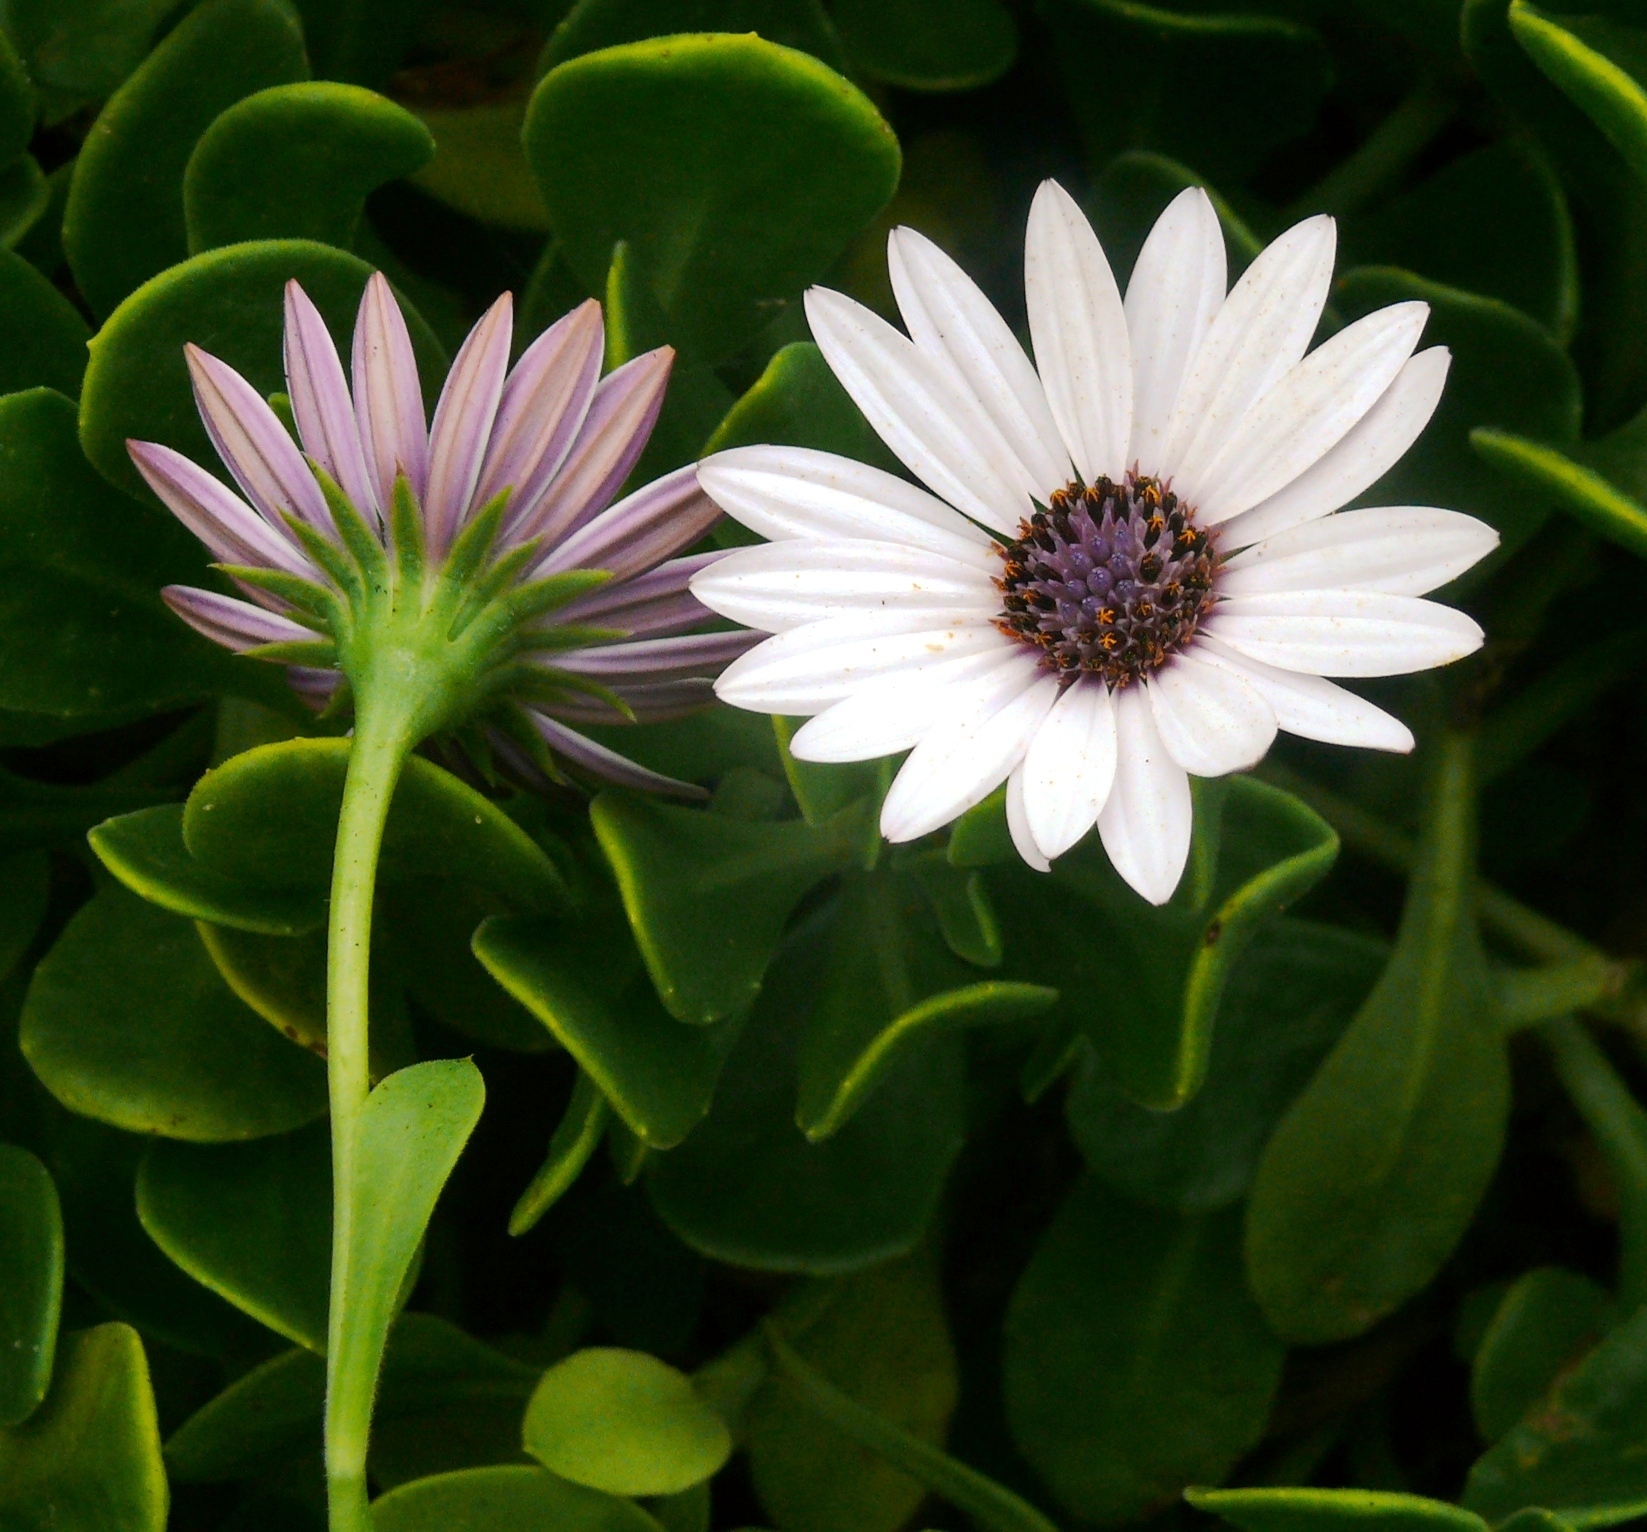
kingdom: Plantae
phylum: Tracheophyta
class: Magnoliopsida
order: Asterales
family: Asteraceae
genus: Dimorphotheca
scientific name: Dimorphotheca fruticosa
